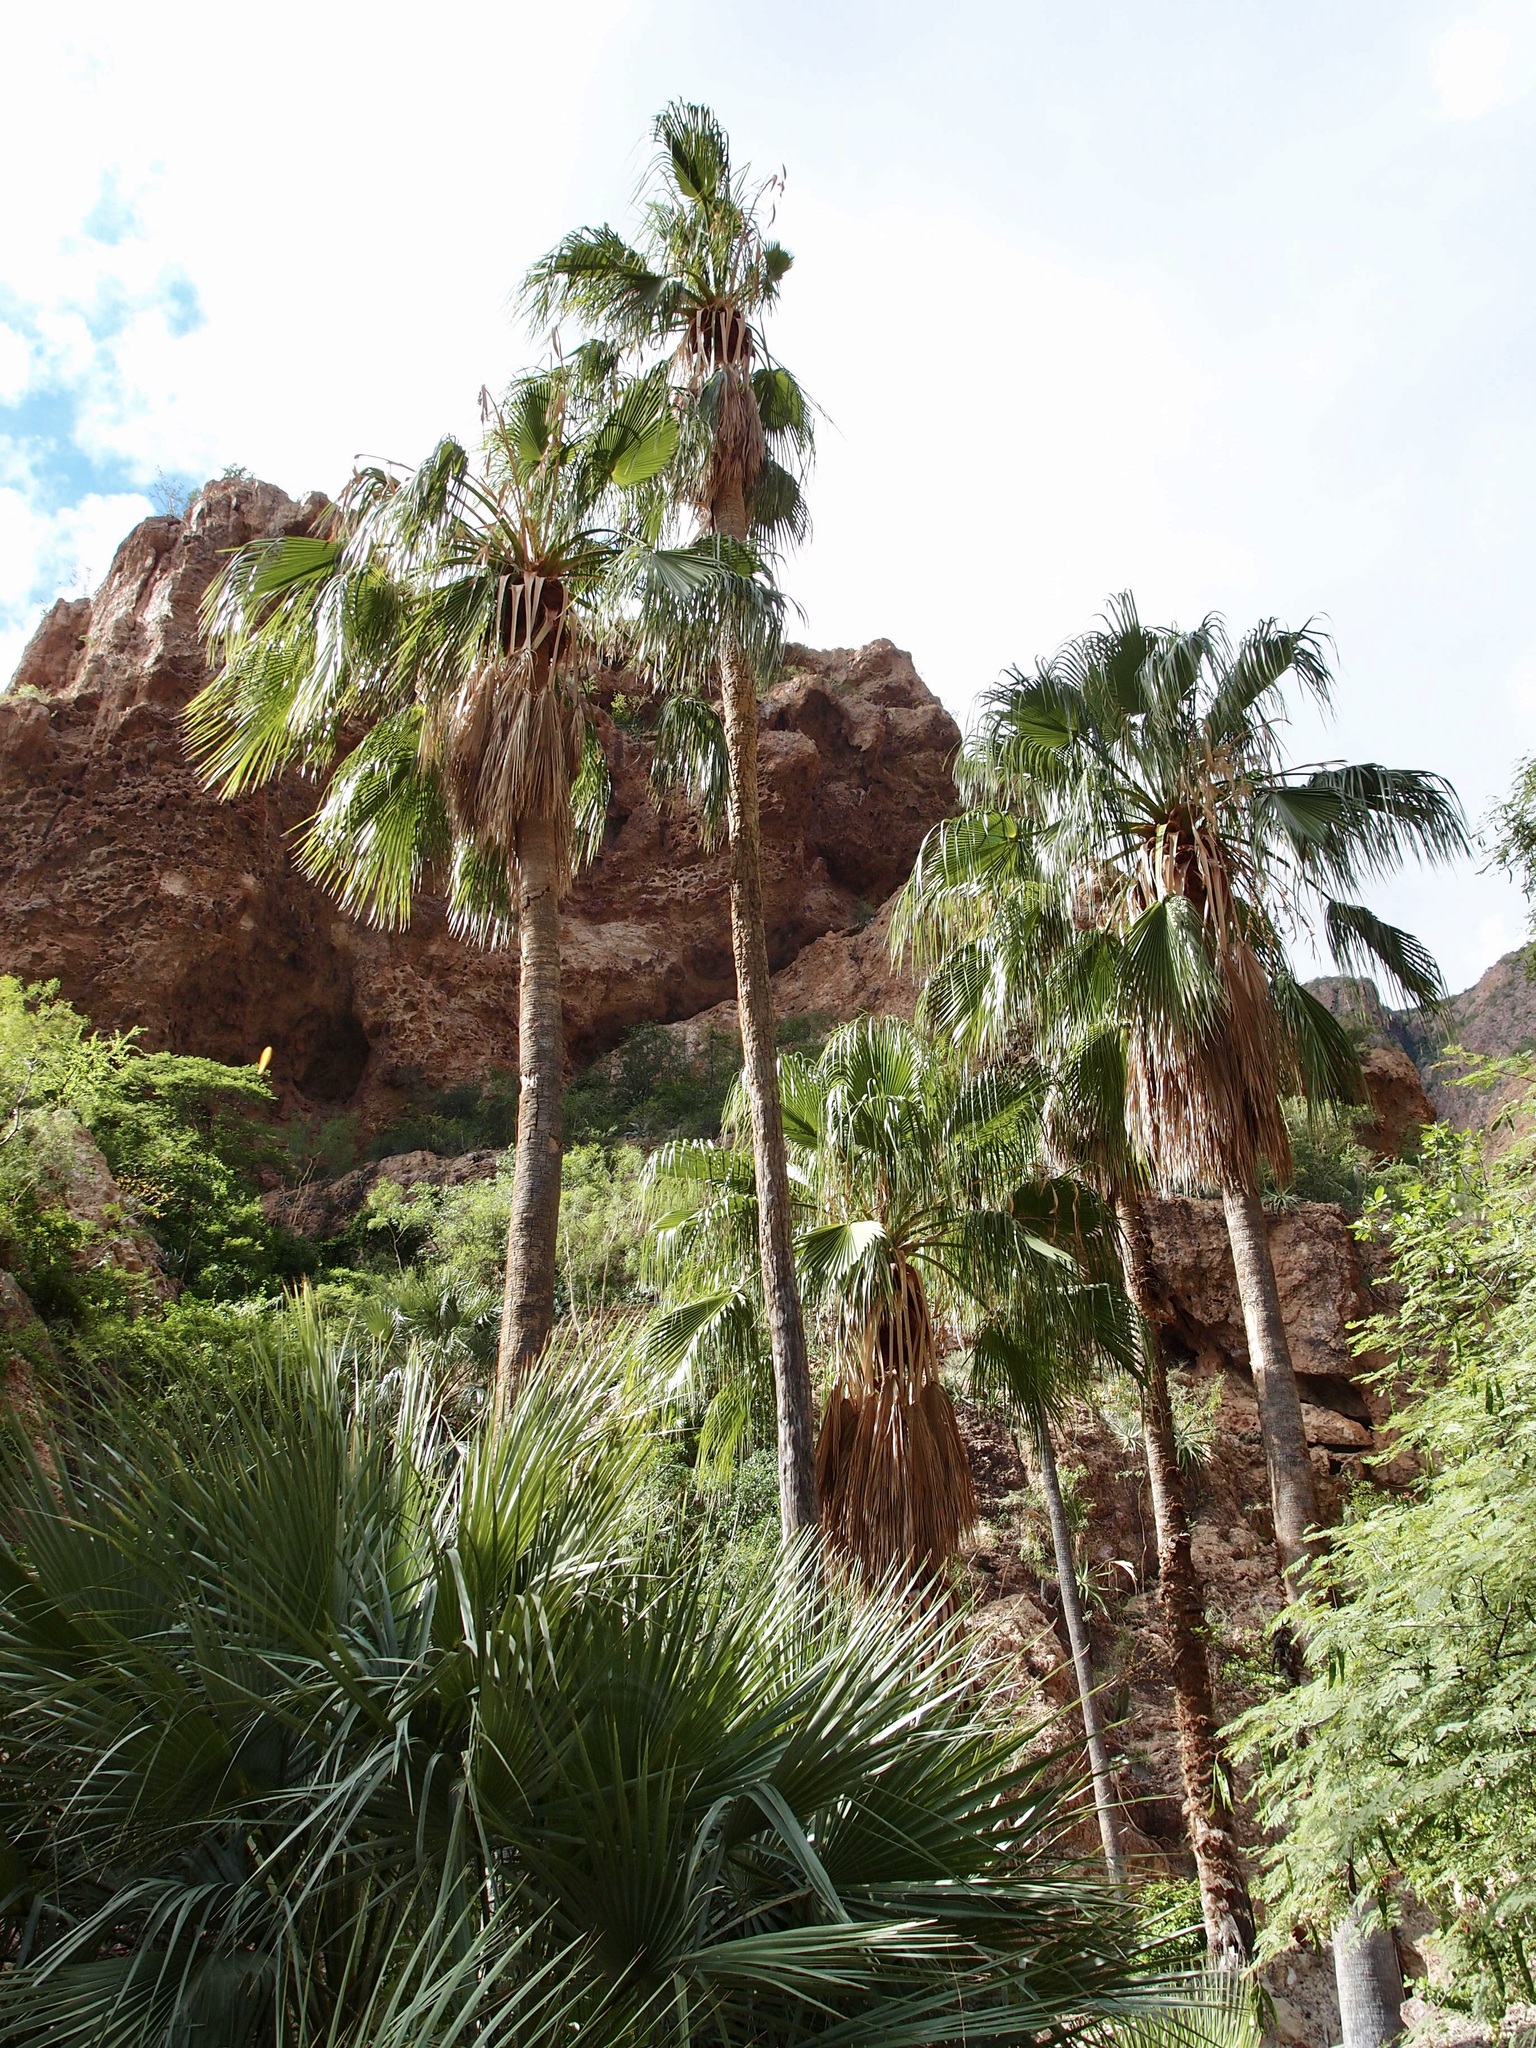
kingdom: Plantae
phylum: Tracheophyta
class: Liliopsida
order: Arecales
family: Arecaceae
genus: Washingtonia
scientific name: Washingtonia robusta
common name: Mexican fan palm
